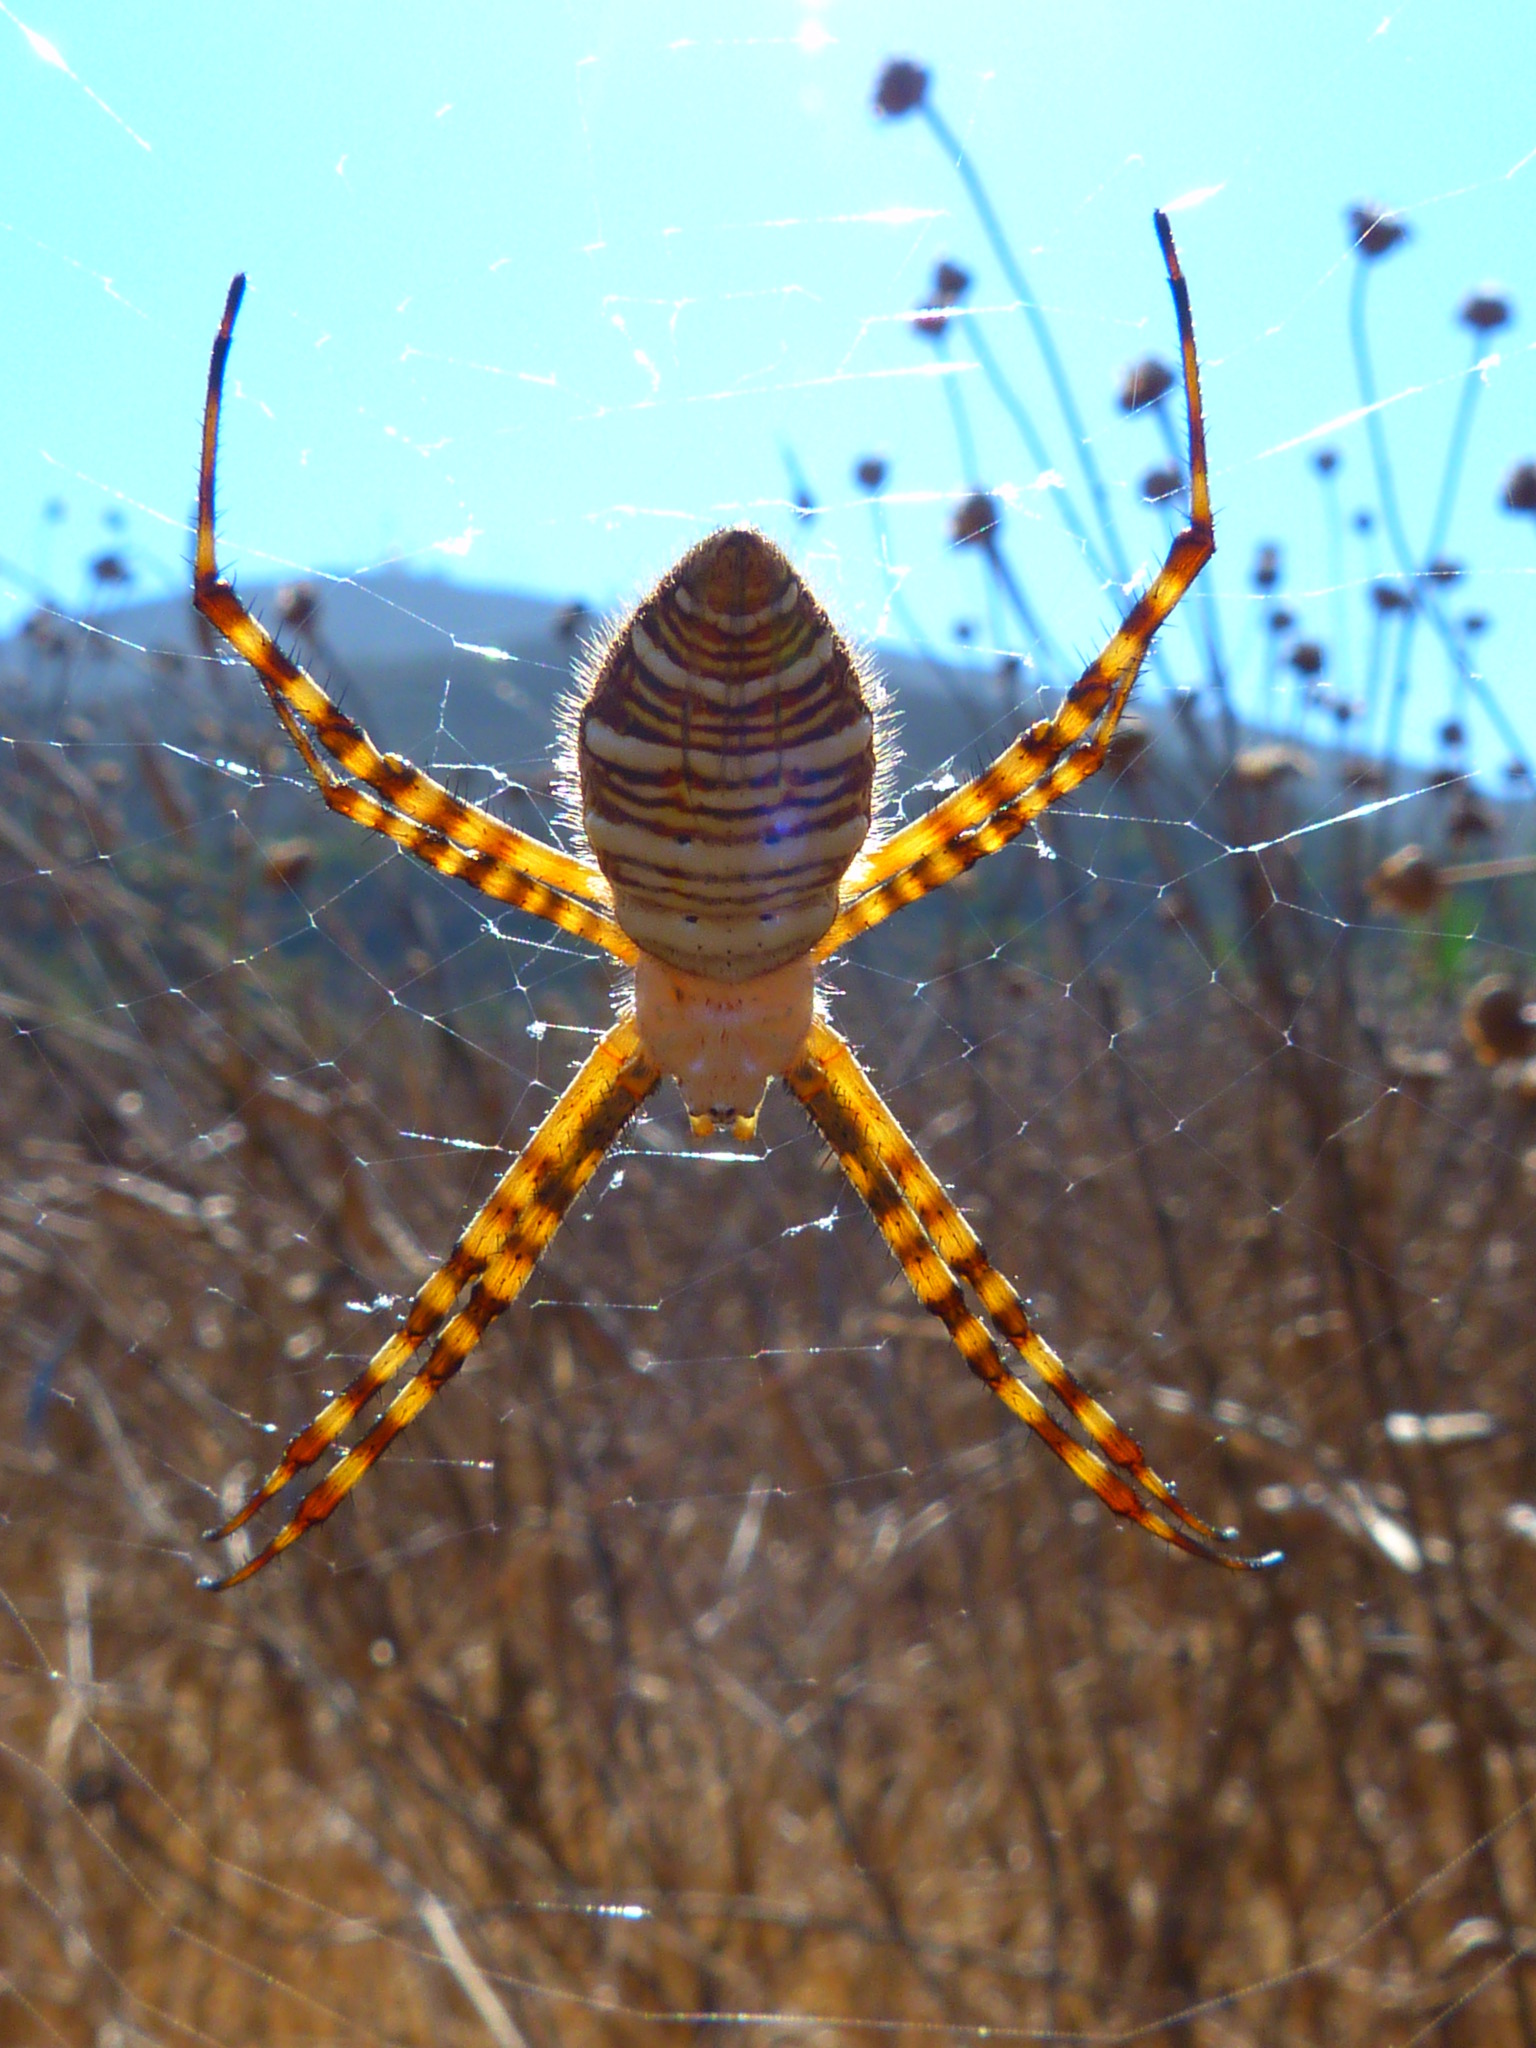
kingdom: Animalia
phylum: Arthropoda
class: Arachnida
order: Araneae
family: Araneidae
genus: Argiope
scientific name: Argiope trifasciata
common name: Banded garden spider
